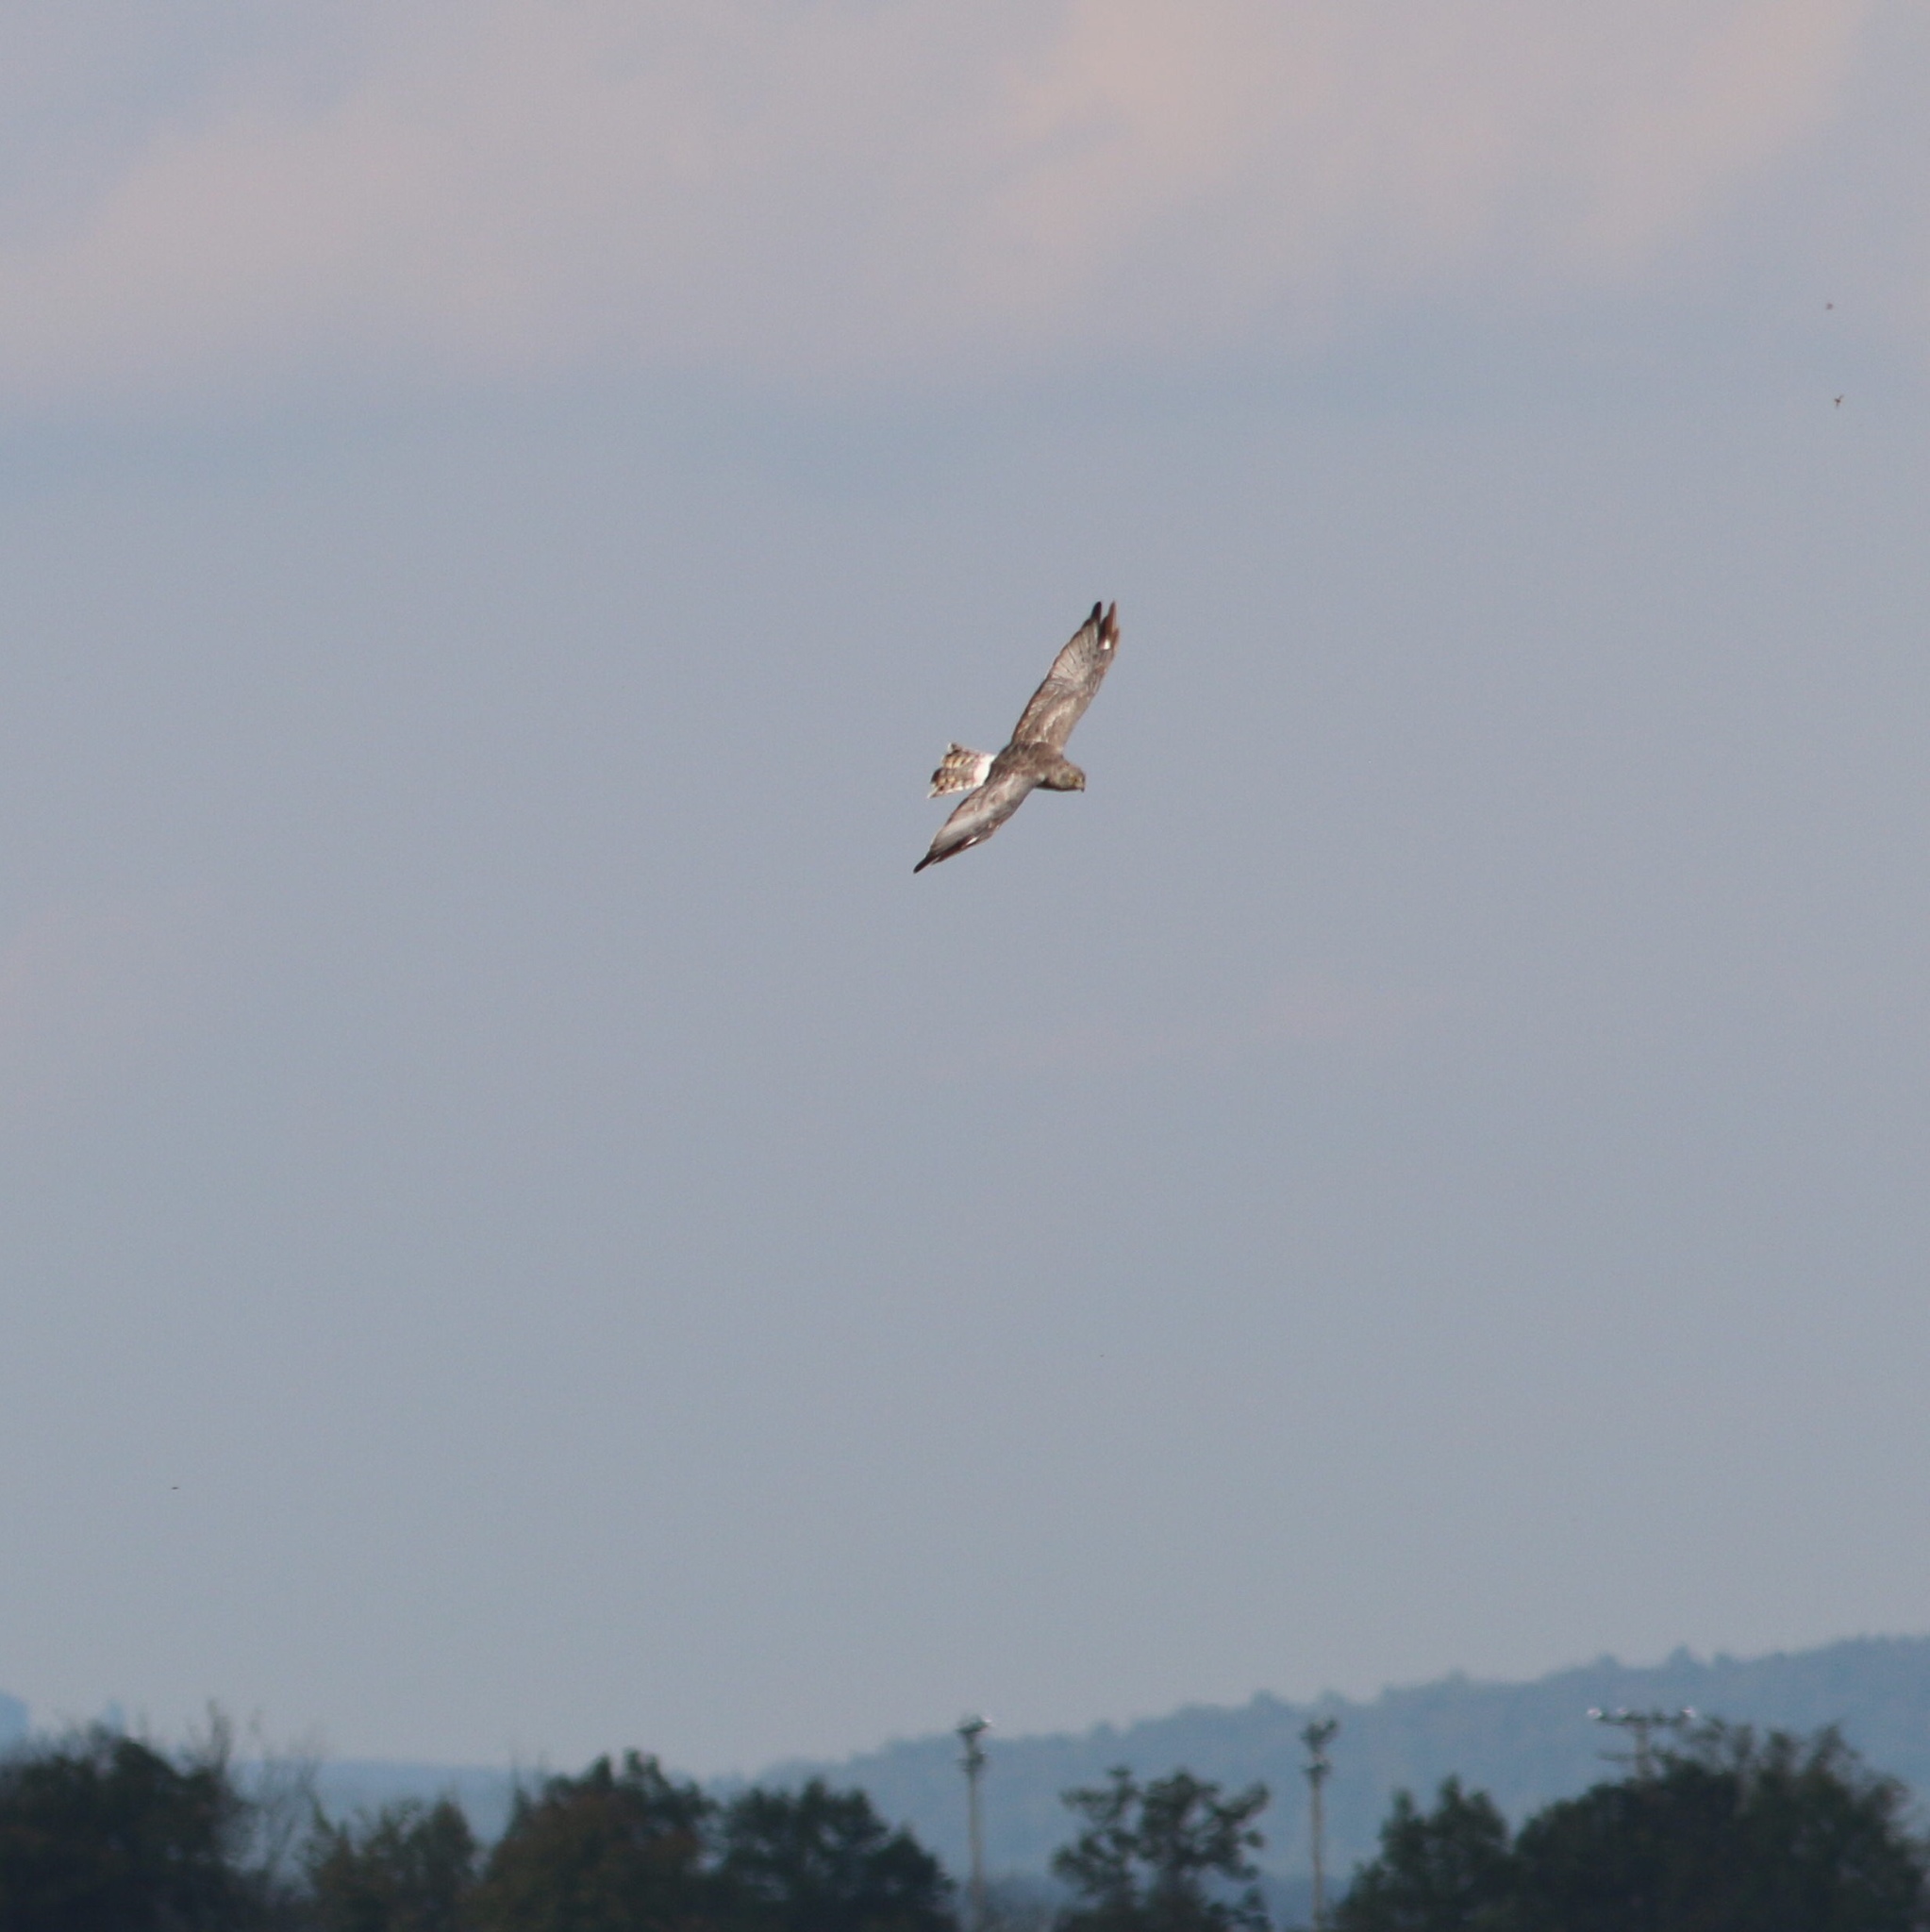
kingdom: Animalia
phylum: Chordata
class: Aves
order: Accipitriformes
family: Accipitridae
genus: Circus
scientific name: Circus cyaneus
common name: Hen harrier
